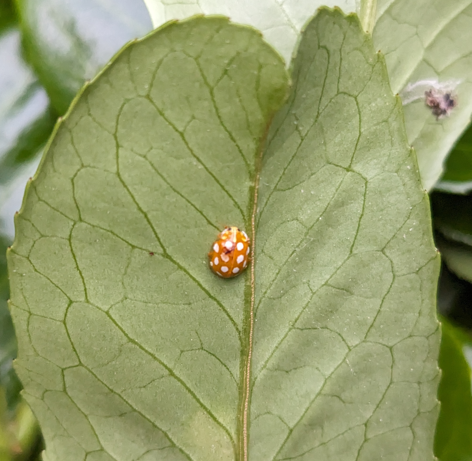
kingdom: Animalia
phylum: Arthropoda
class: Insecta
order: Coleoptera
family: Coccinellidae
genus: Halyzia
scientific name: Halyzia sedecimguttata
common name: Orange ladybird
